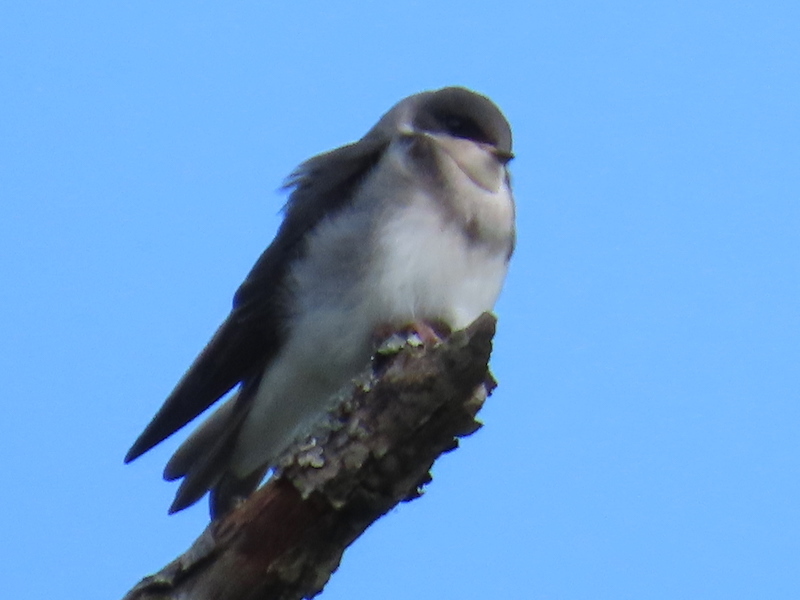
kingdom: Animalia
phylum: Chordata
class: Aves
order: Passeriformes
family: Hirundinidae
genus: Tachycineta
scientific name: Tachycineta bicolor
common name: Tree swallow
